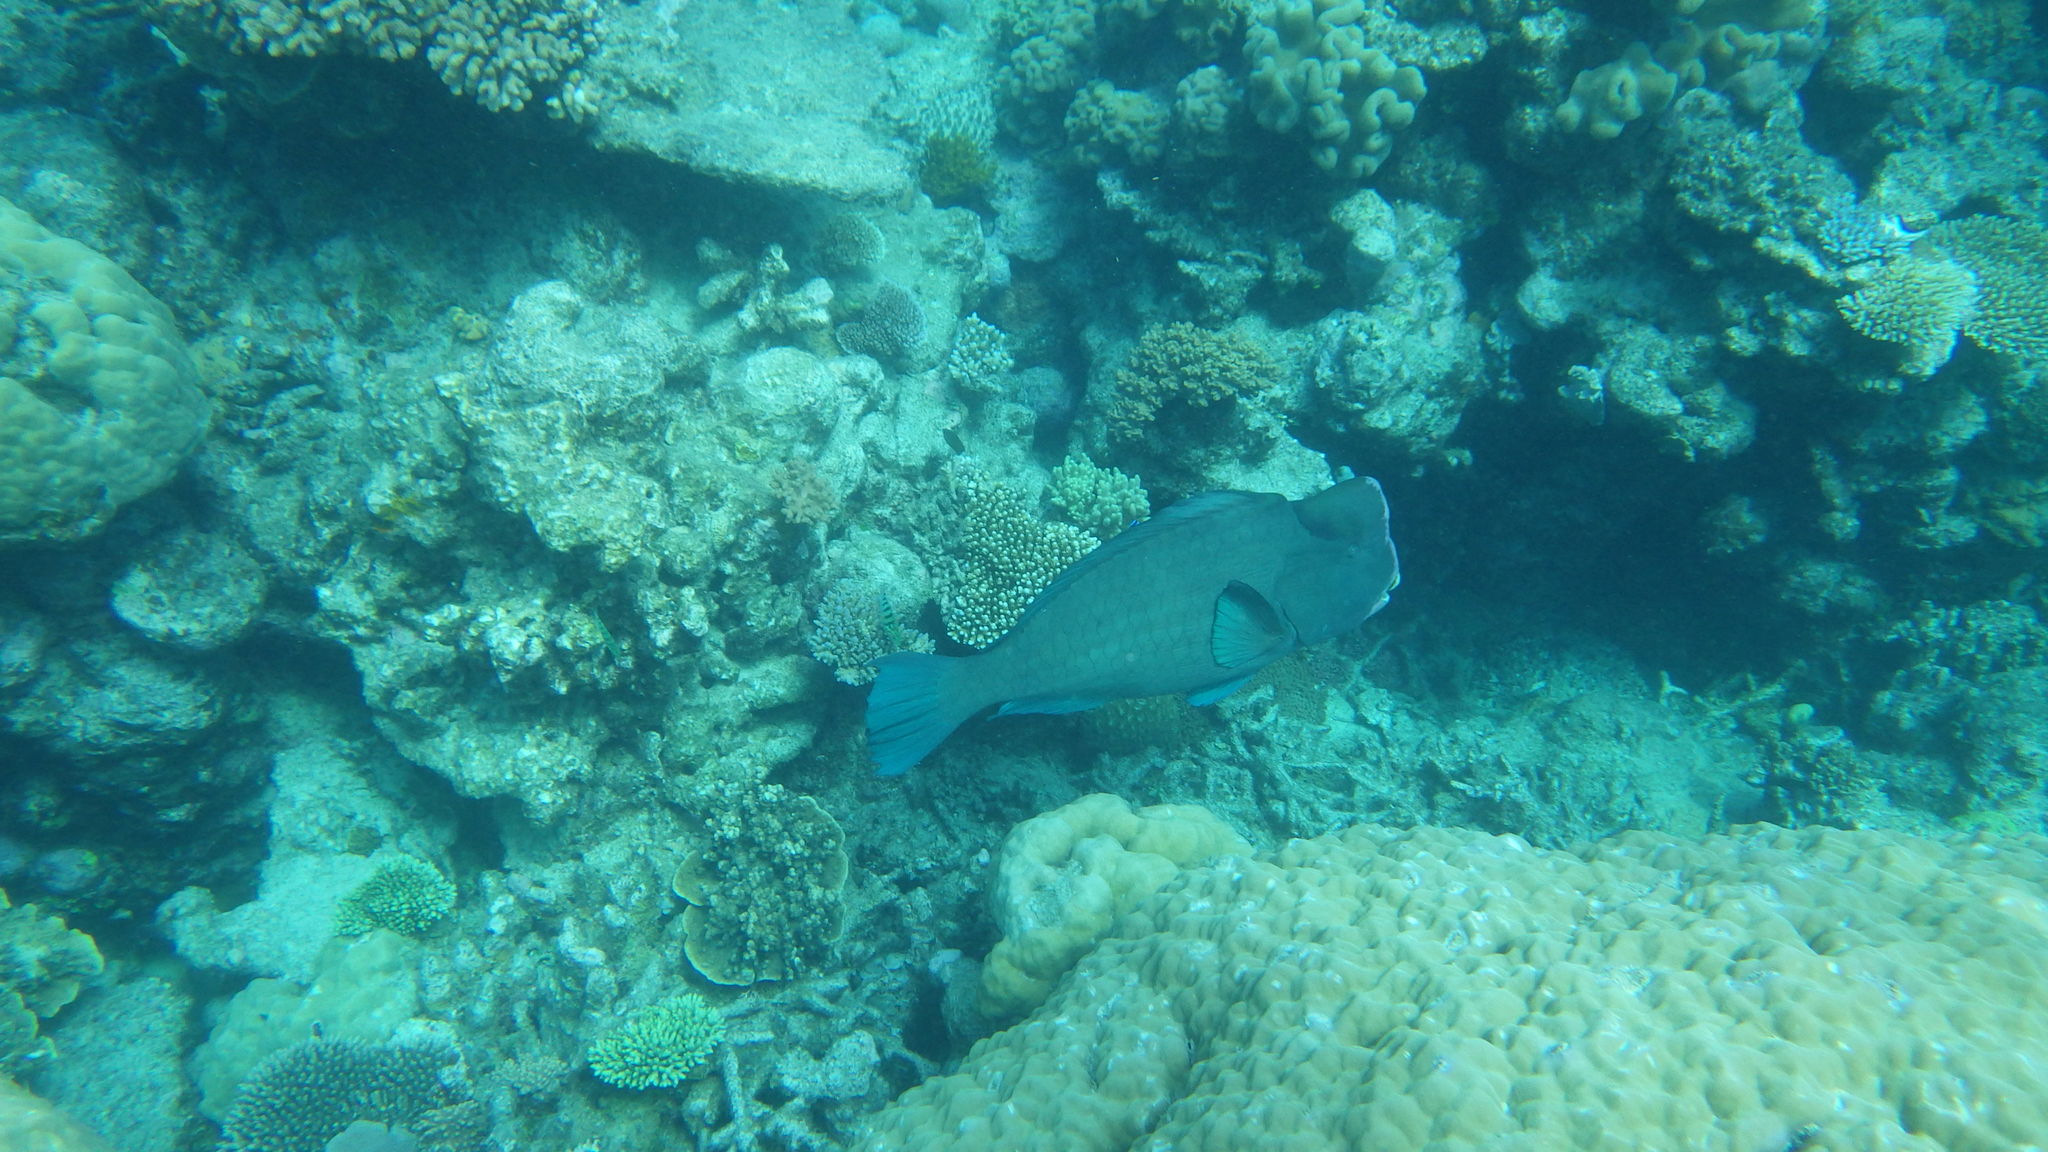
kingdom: Animalia
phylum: Chordata
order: Perciformes
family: Scaridae
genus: Bolbometopon
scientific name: Bolbometopon muricatum
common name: Humphead parrotfish
